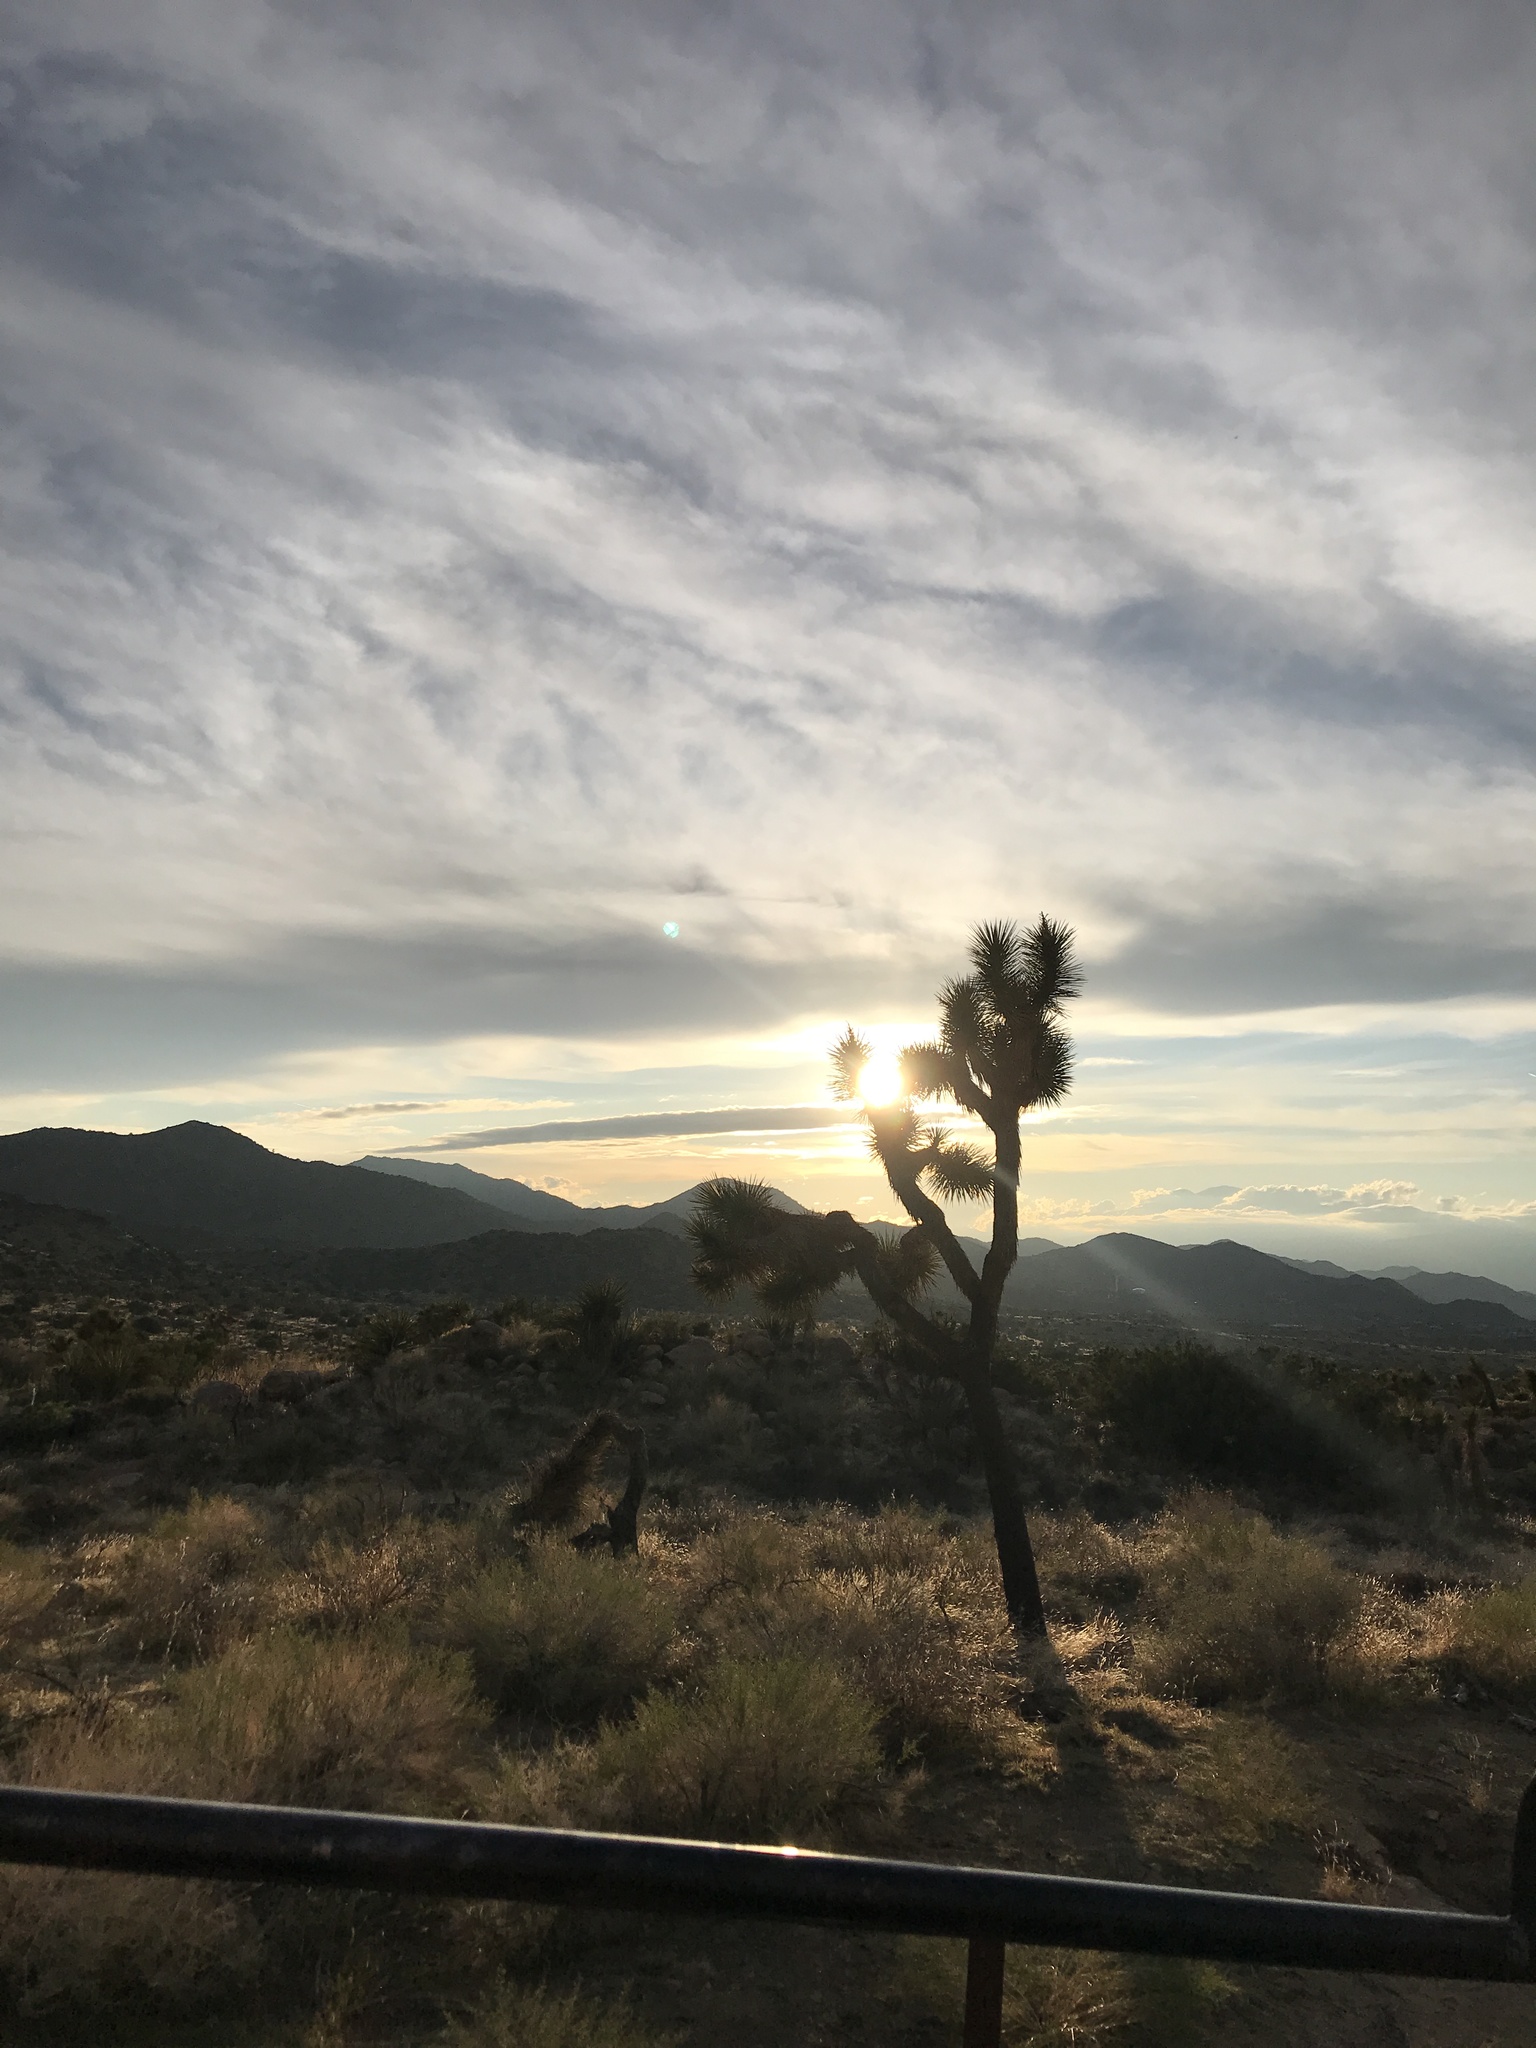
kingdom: Plantae
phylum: Tracheophyta
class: Liliopsida
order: Asparagales
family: Asparagaceae
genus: Yucca
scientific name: Yucca brevifolia
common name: Joshua tree
